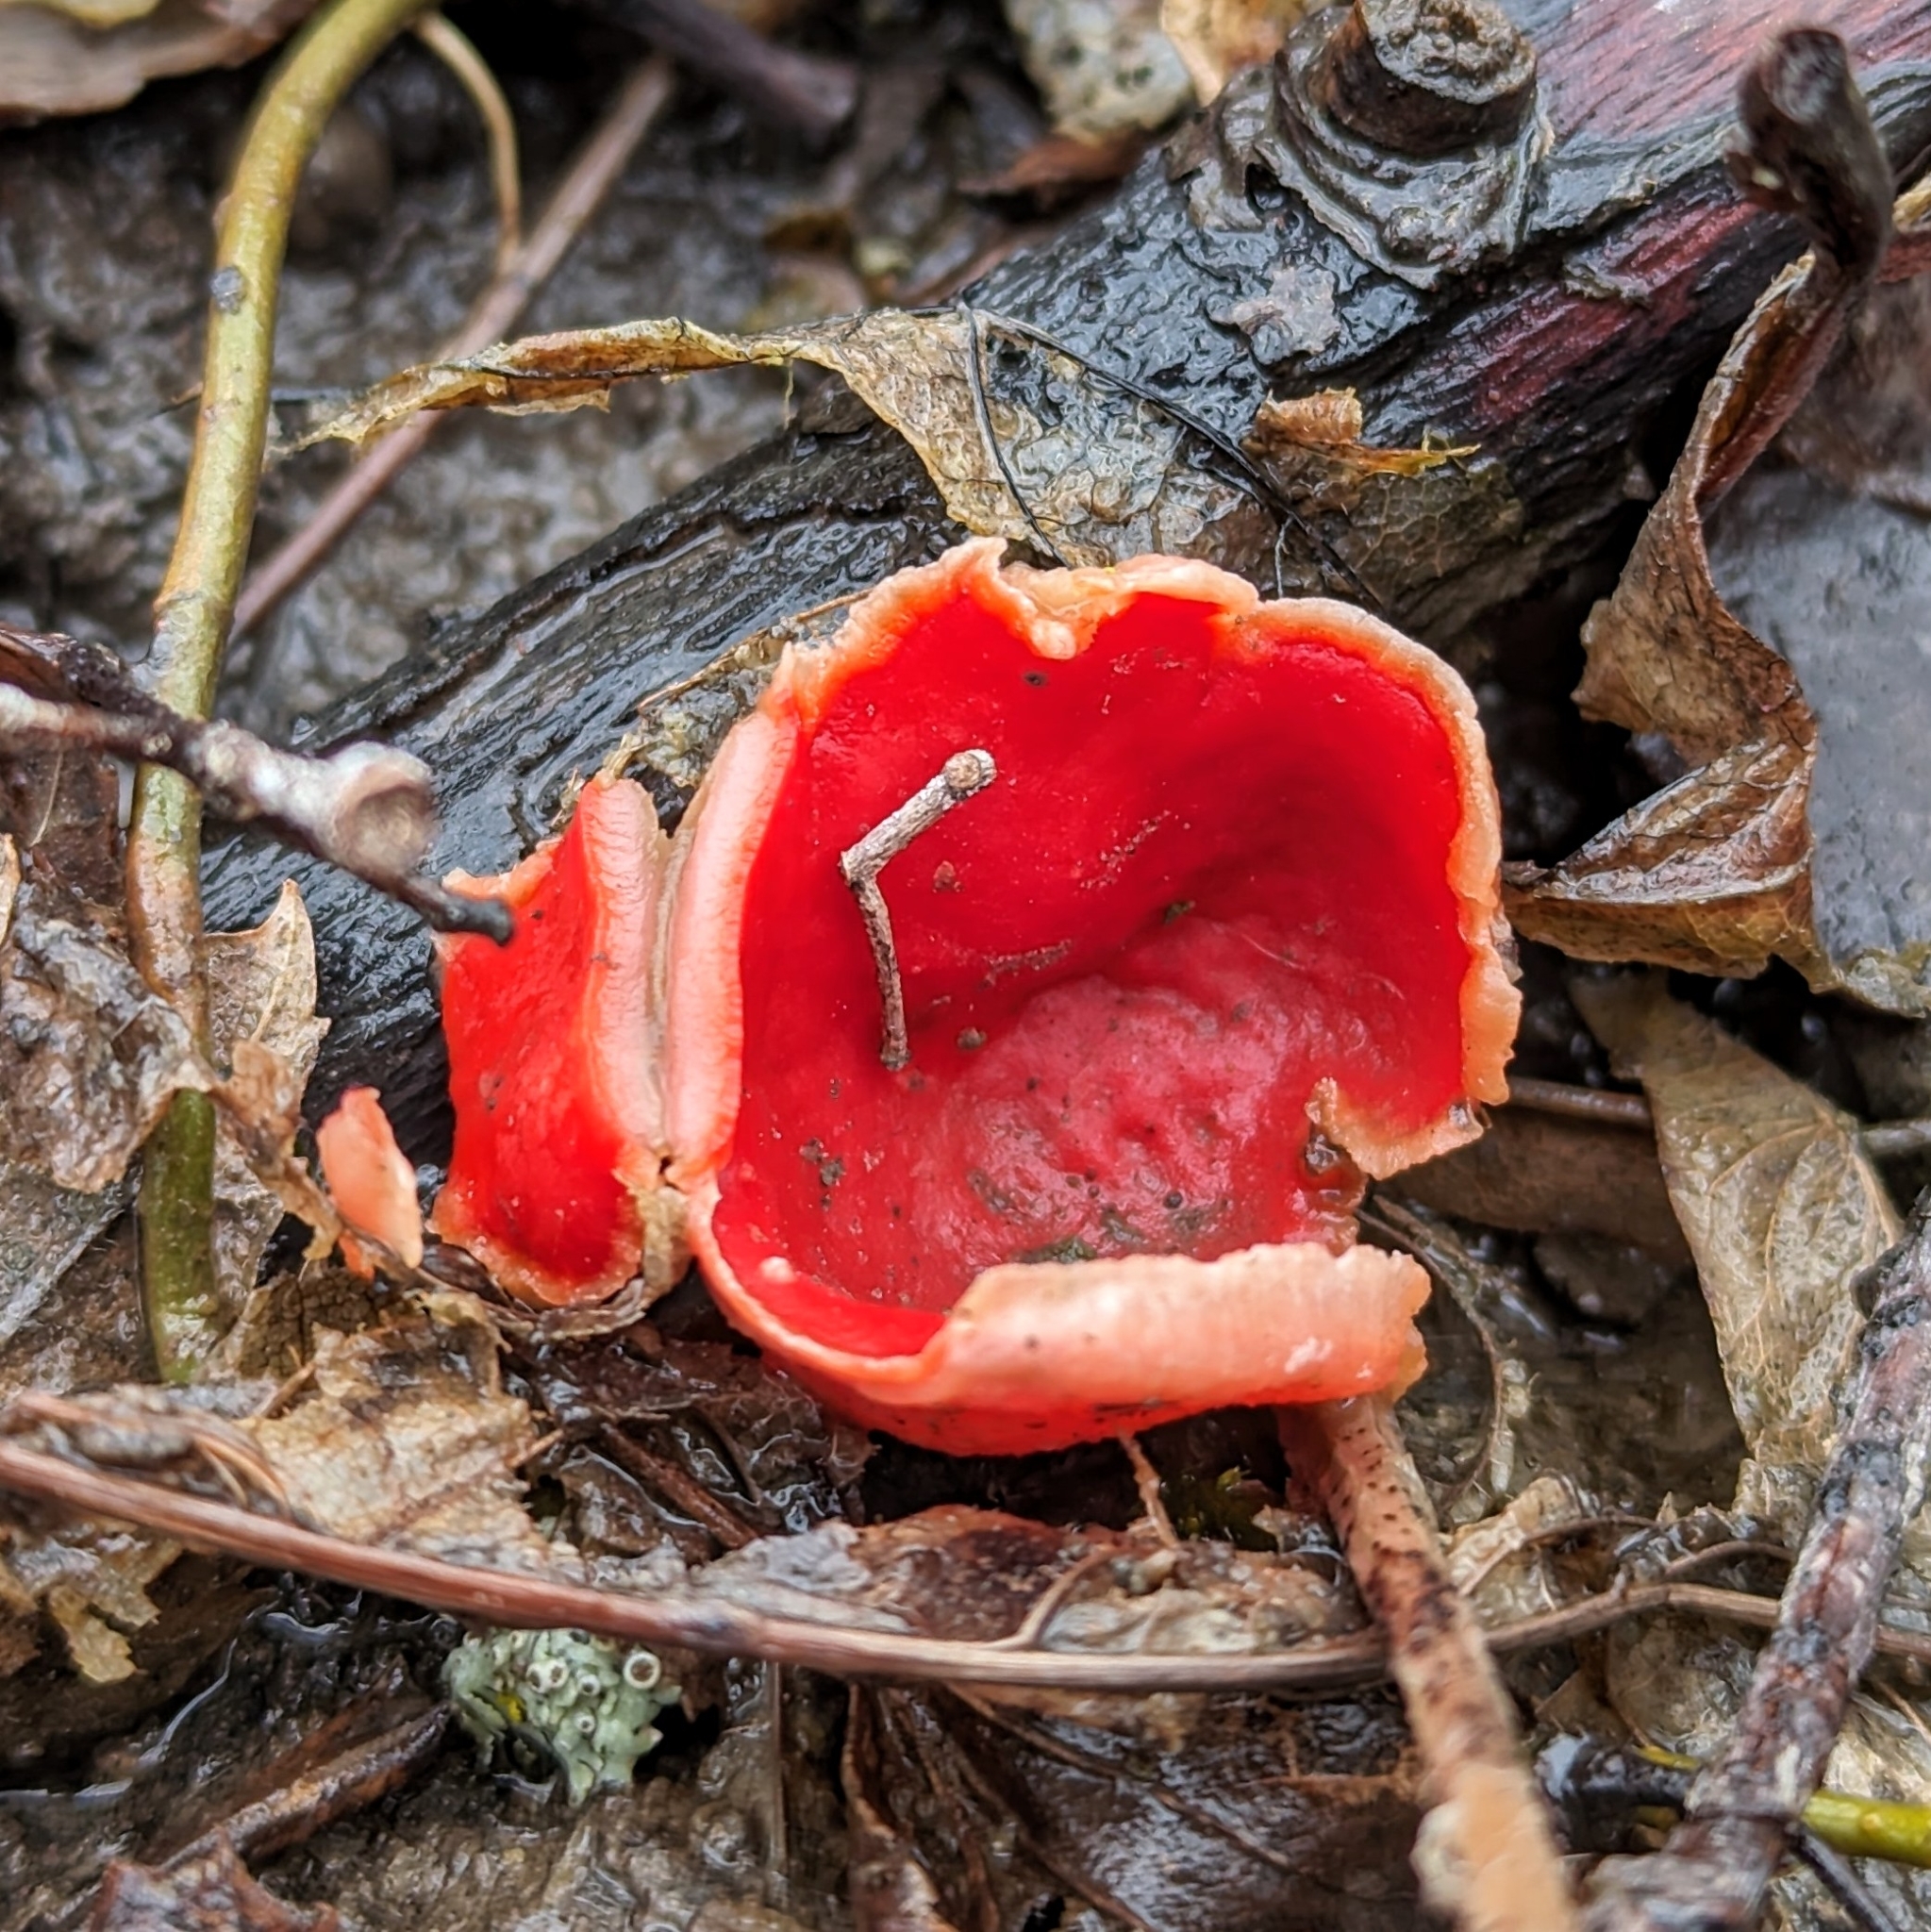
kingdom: Fungi
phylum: Ascomycota
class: Pezizomycetes
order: Pezizales
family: Sarcoscyphaceae
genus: Sarcoscypha
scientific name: Sarcoscypha
